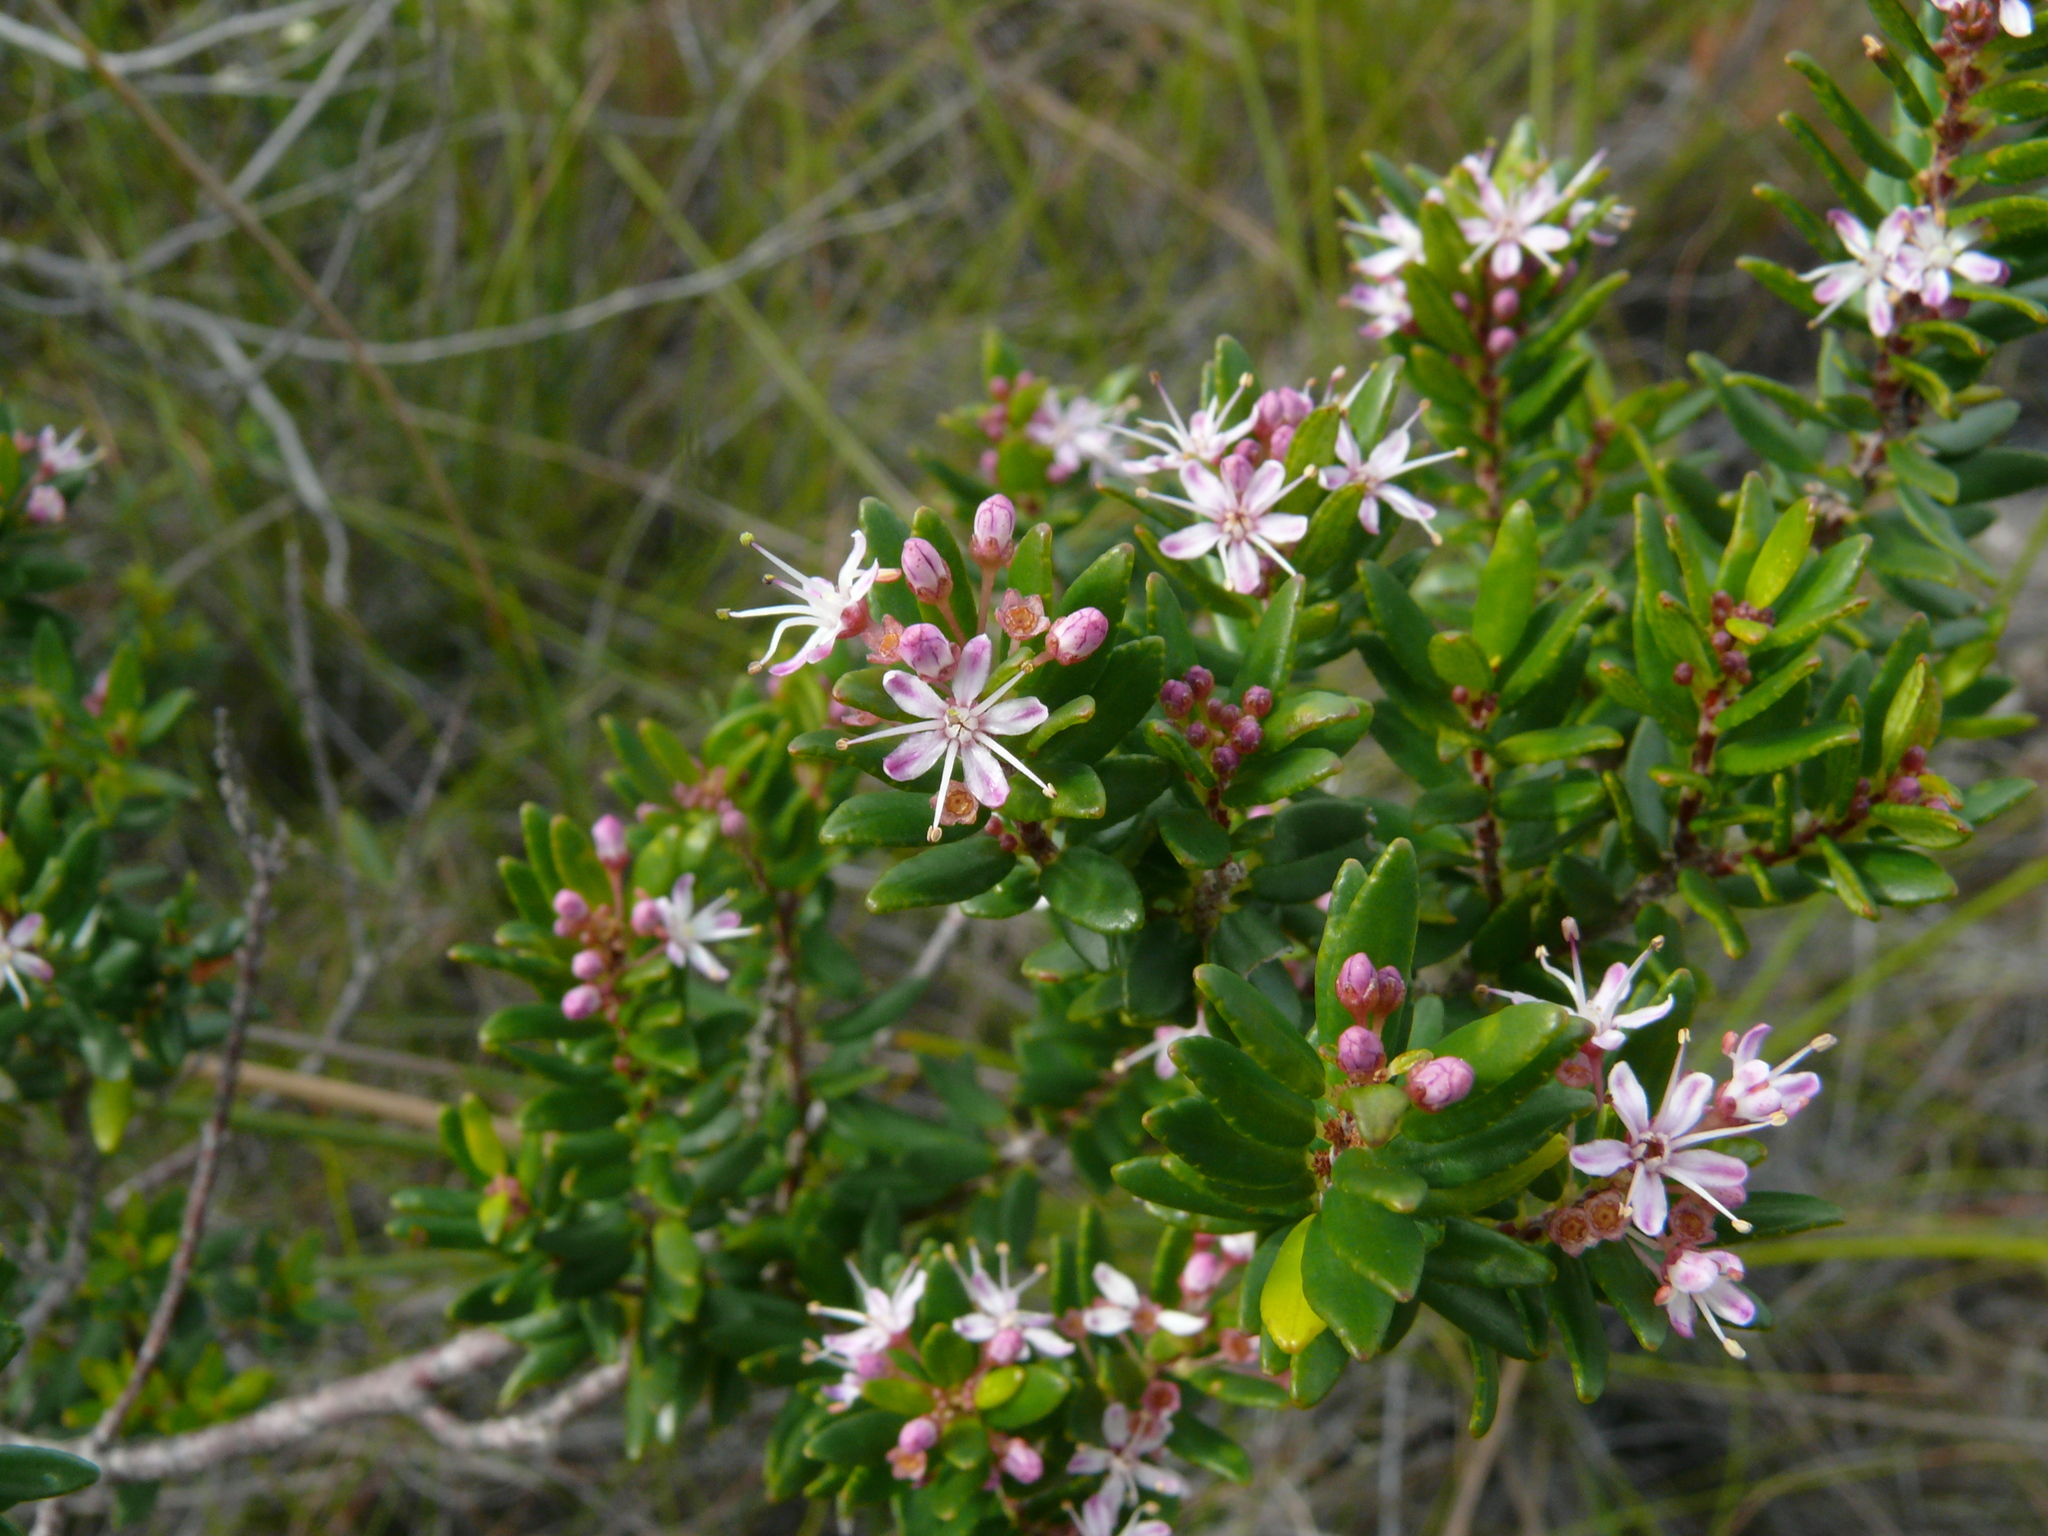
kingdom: Plantae
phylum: Tracheophyta
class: Magnoliopsida
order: Sapindales
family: Rutaceae
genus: Agathosma
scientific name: Agathosma ovata
